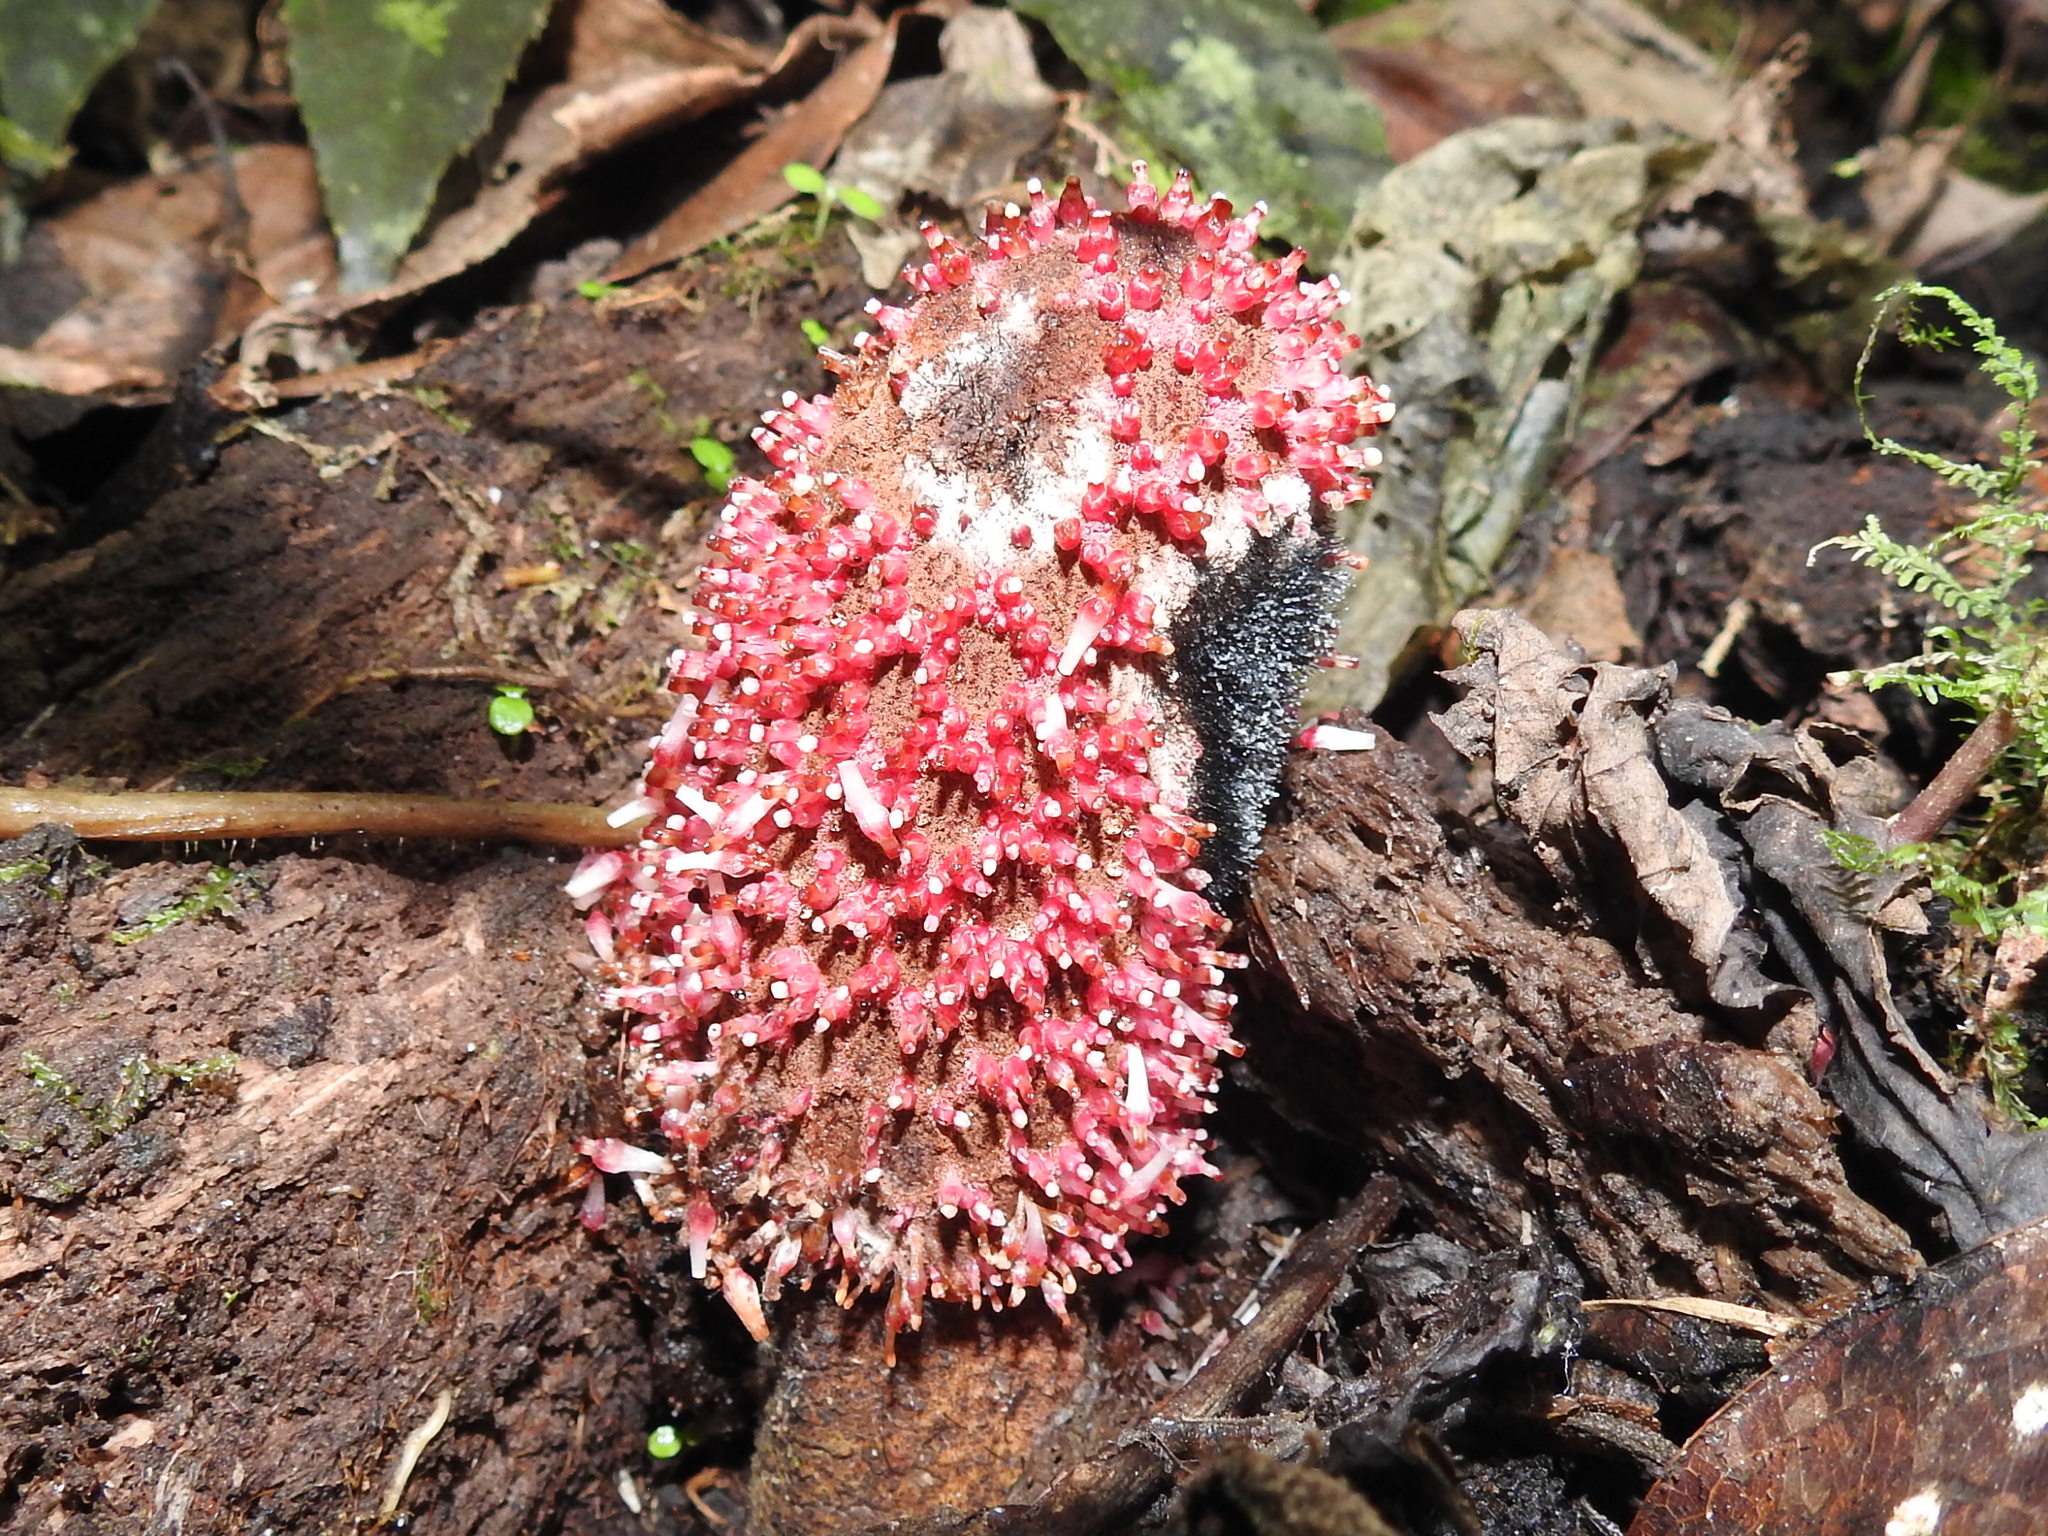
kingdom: Plantae
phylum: Tracheophyta
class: Magnoliopsida
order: Santalales
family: Balanophoraceae
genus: Corynaea
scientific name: Corynaea crassa
